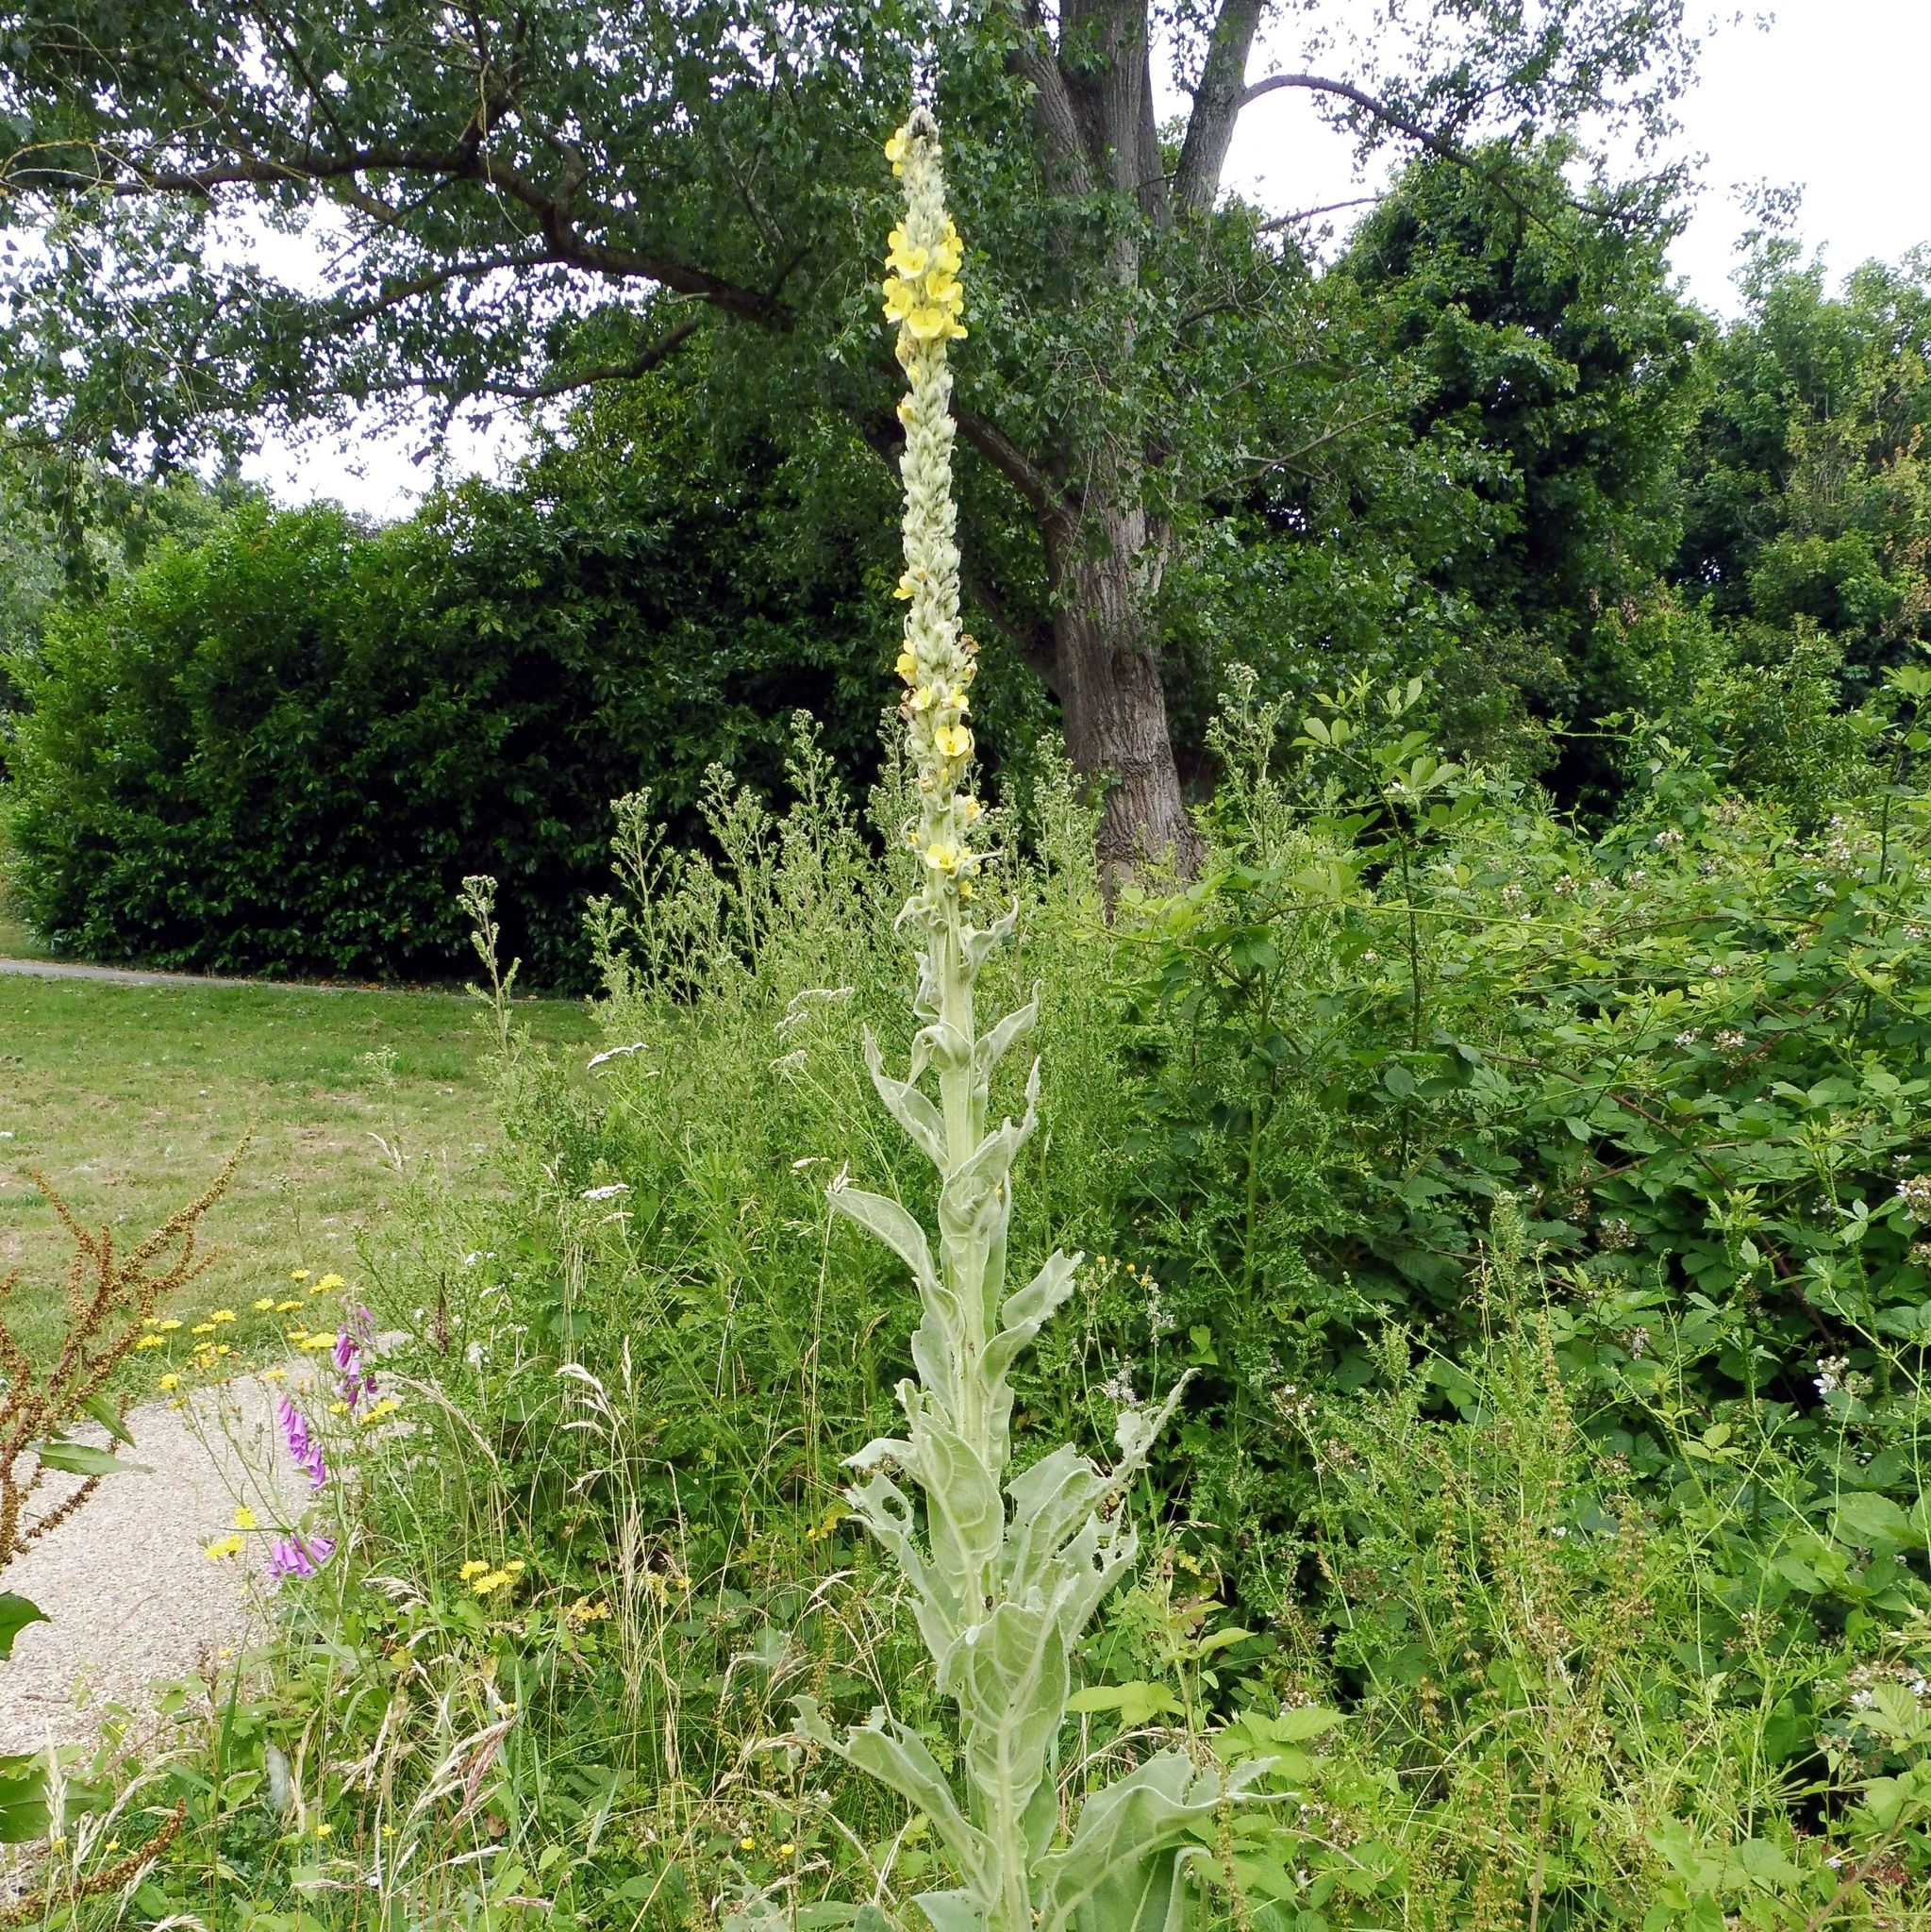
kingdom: Plantae
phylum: Tracheophyta
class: Magnoliopsida
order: Lamiales
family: Scrophulariaceae
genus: Verbascum
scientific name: Verbascum thapsus
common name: Common mullein
